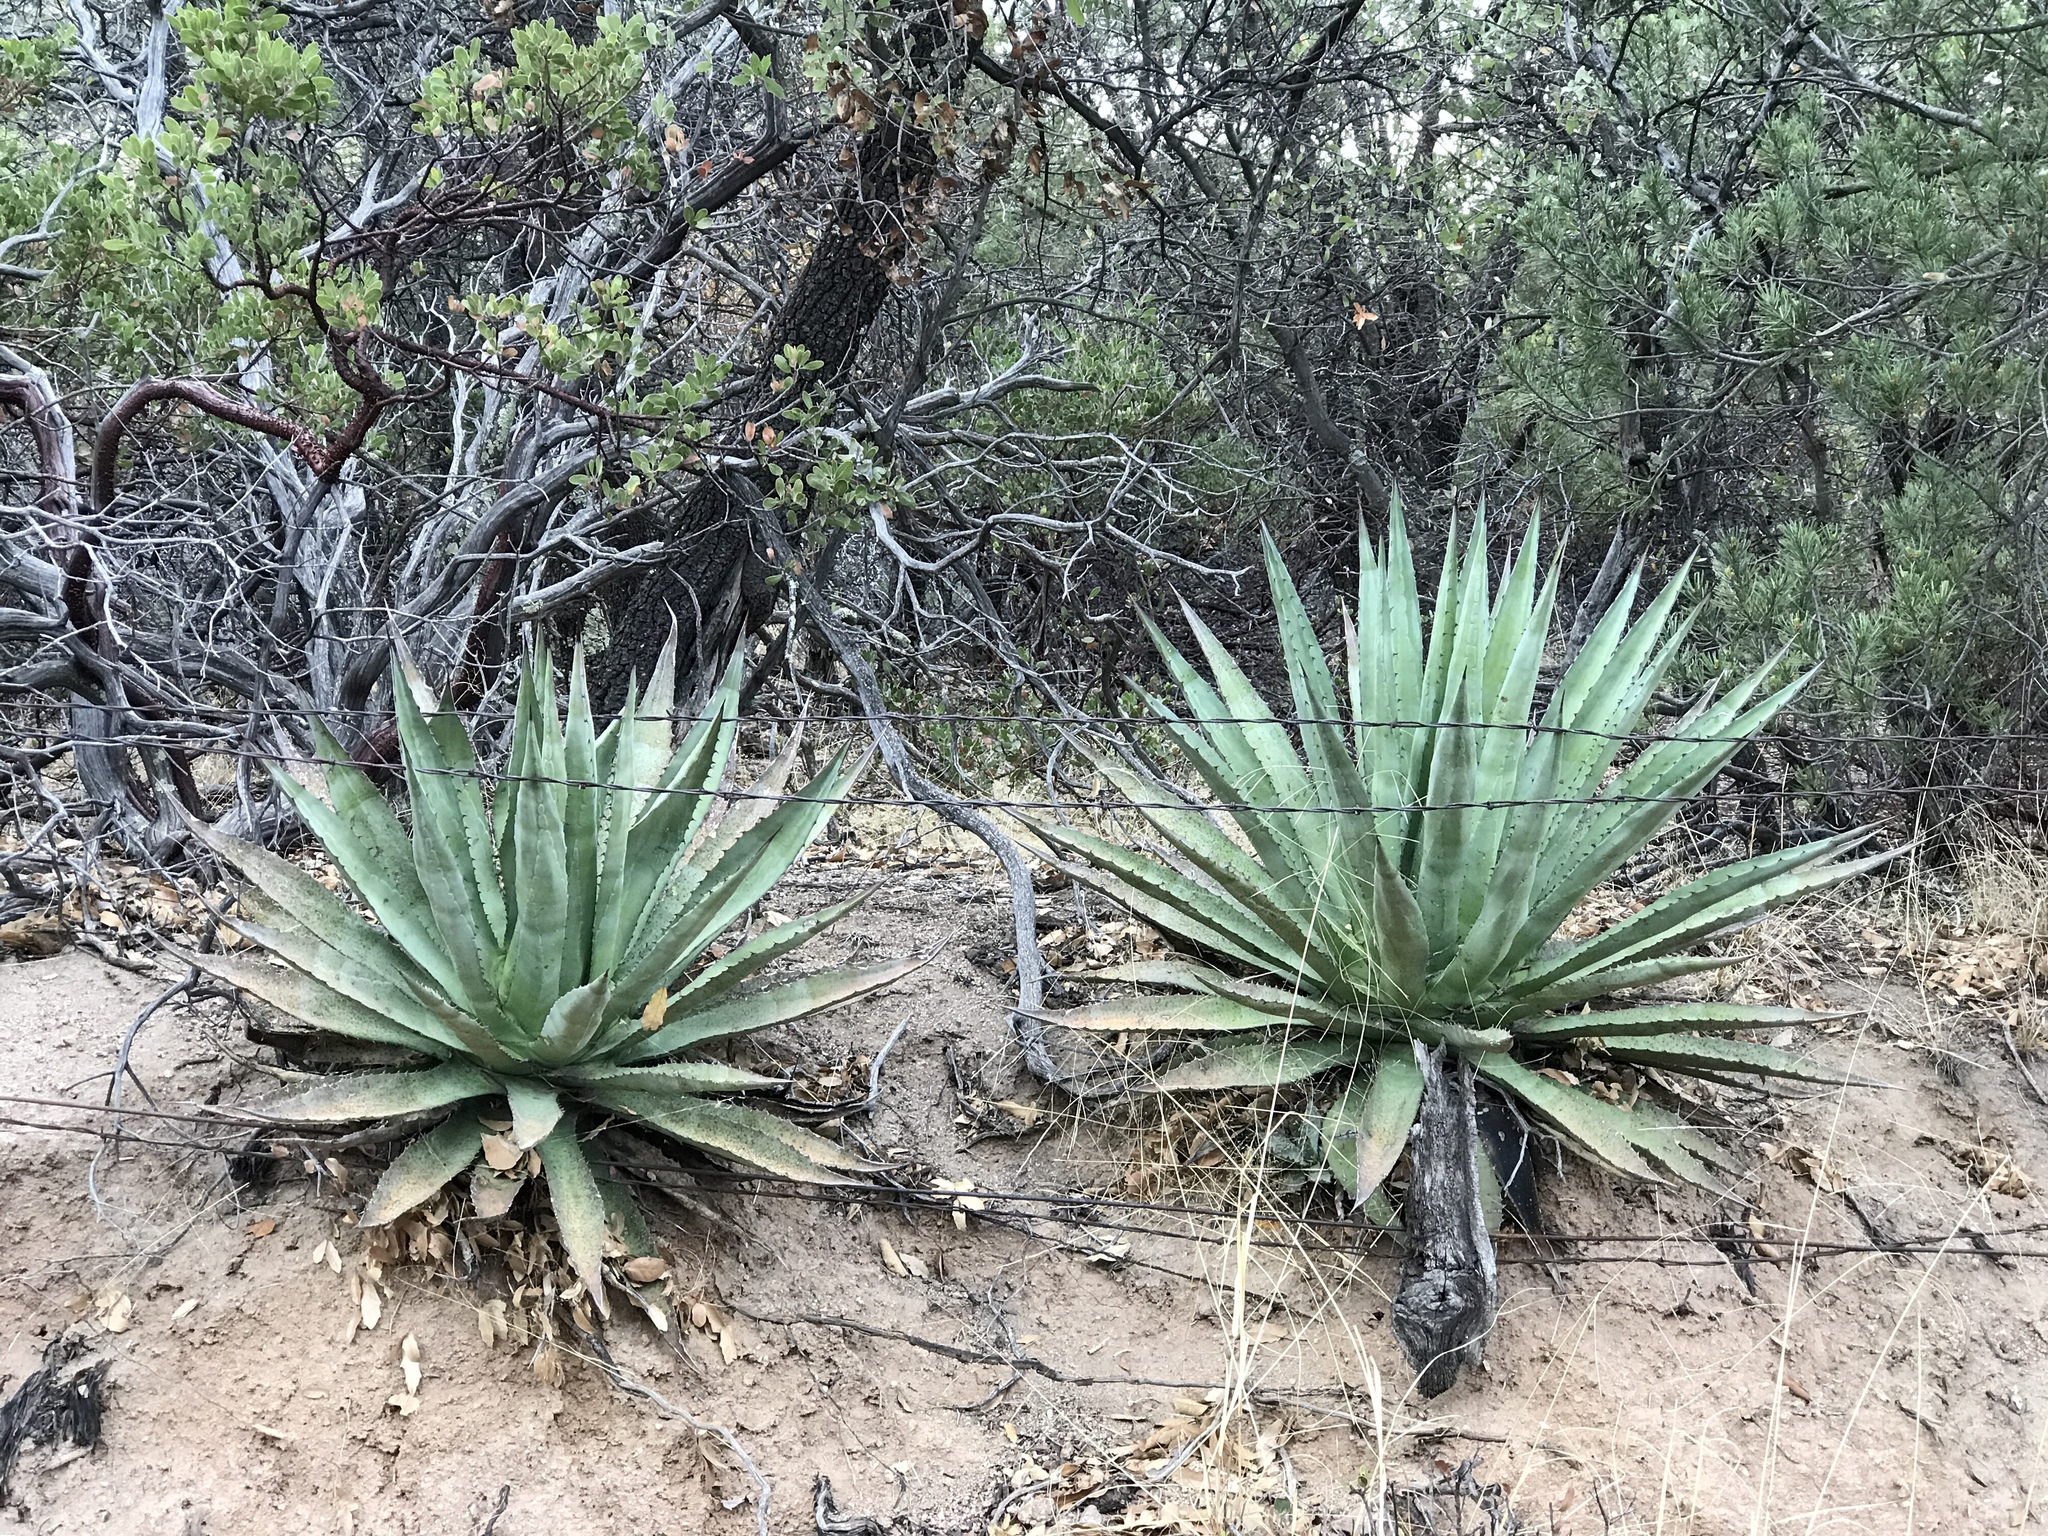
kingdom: Plantae
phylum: Tracheophyta
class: Liliopsida
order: Asparagales
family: Asparagaceae
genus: Agave
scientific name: Agave palmeri
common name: Palmer agave
